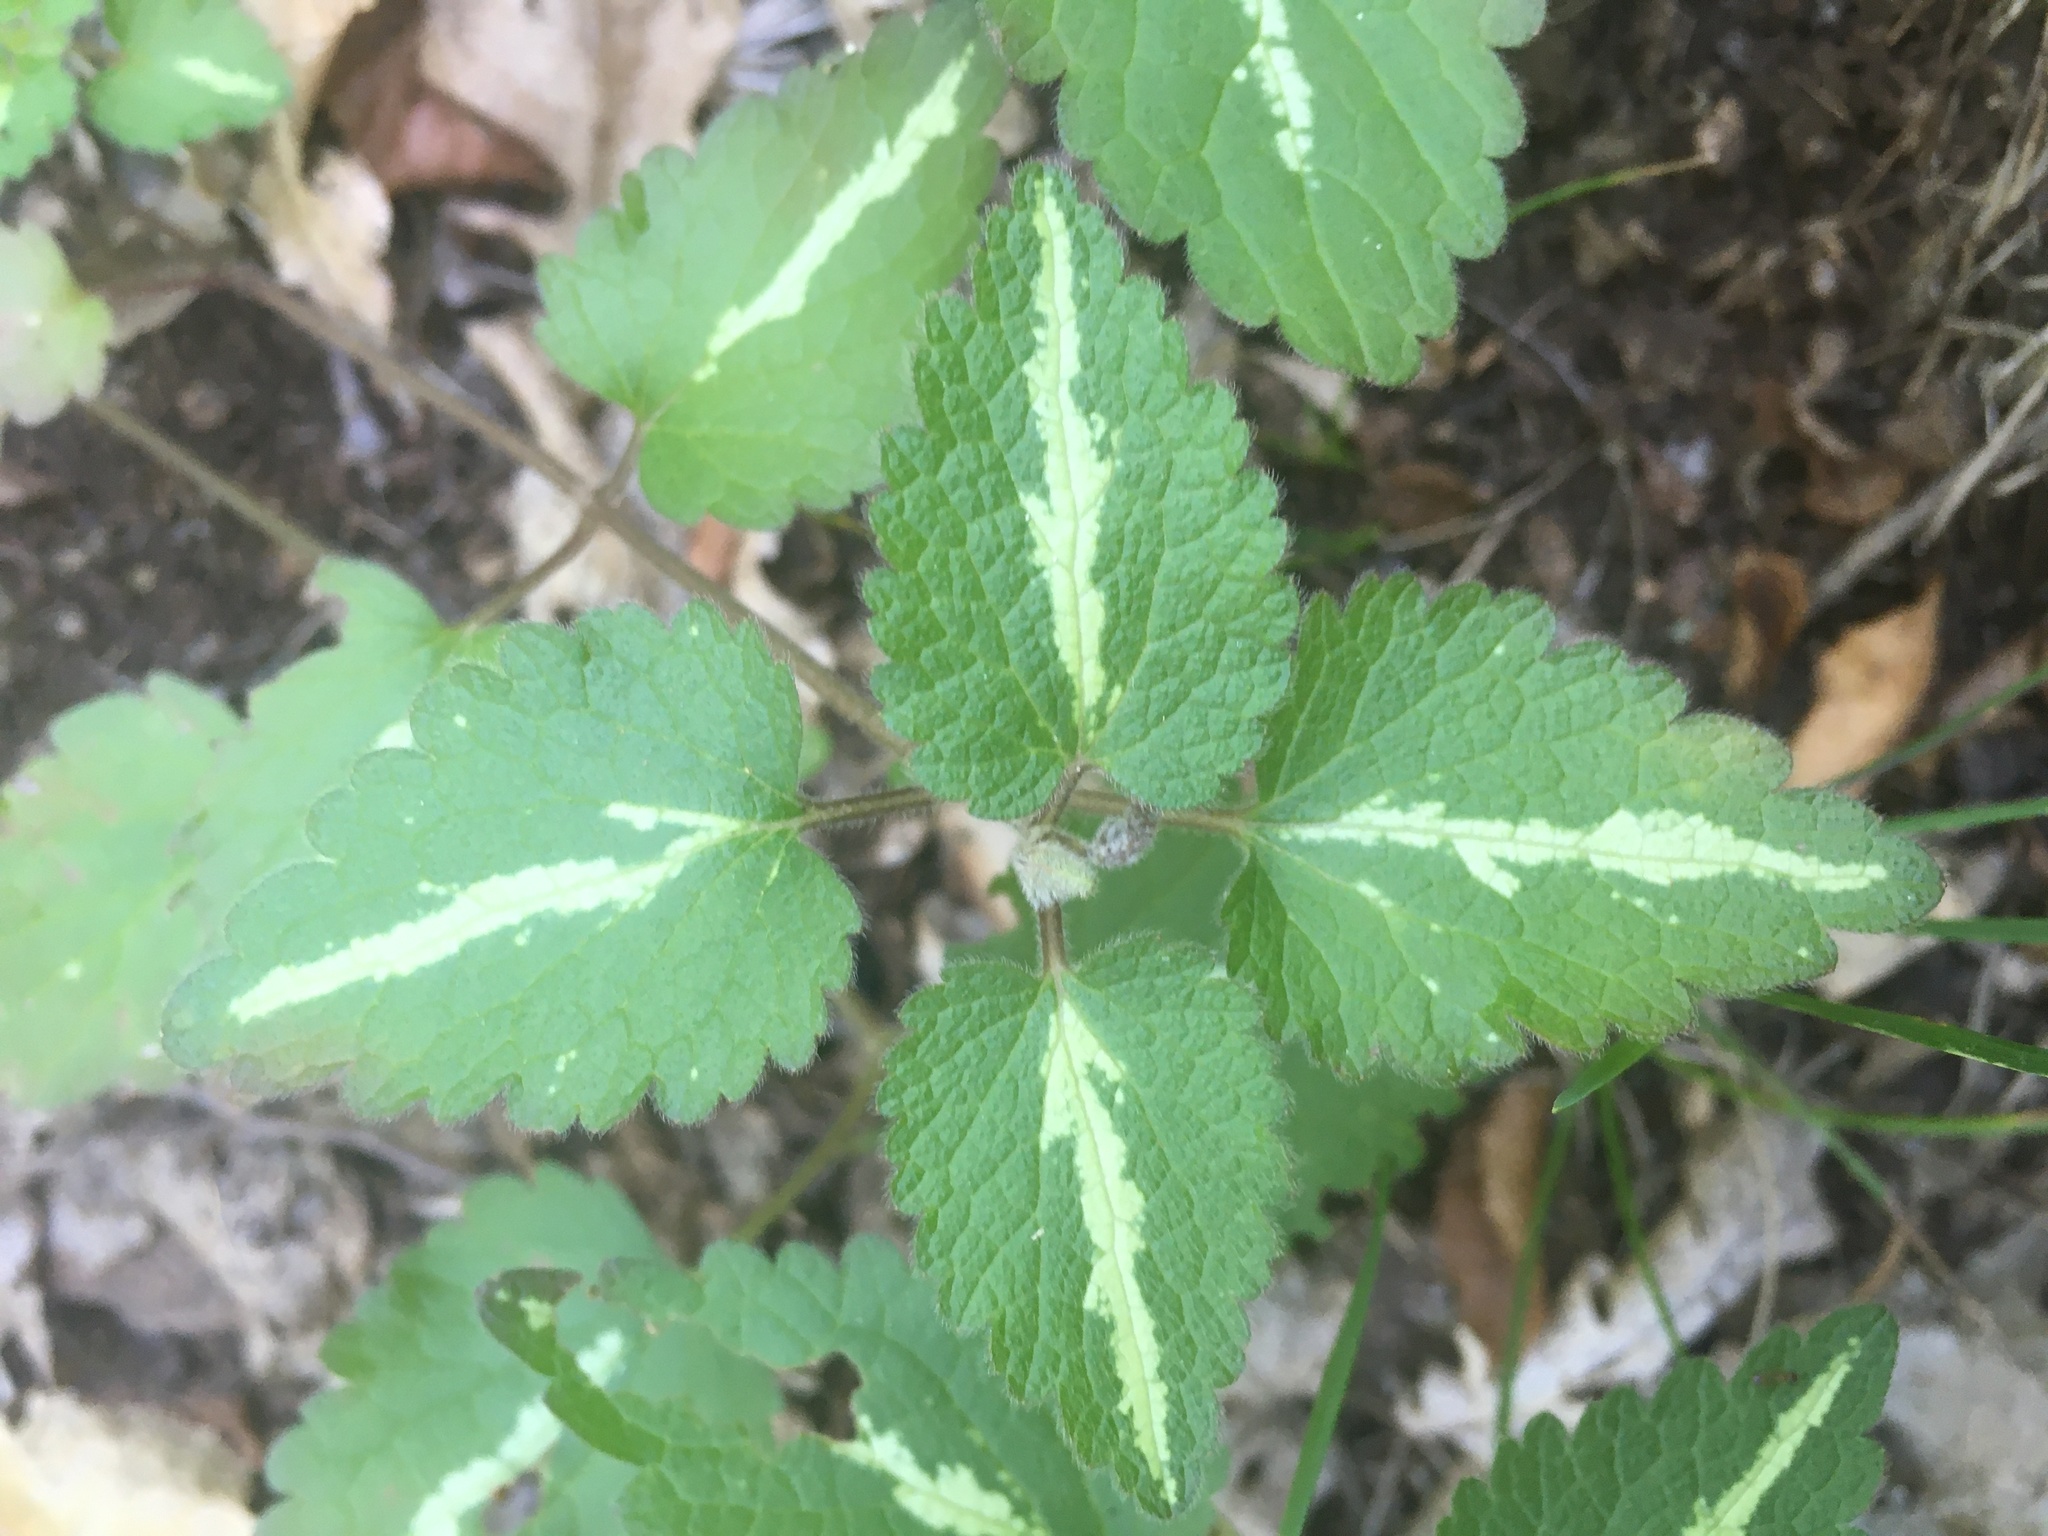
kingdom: Plantae
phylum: Tracheophyta
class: Magnoliopsida
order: Lamiales
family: Lamiaceae
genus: Lamium
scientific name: Lamium maculatum
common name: Spotted dead-nettle
